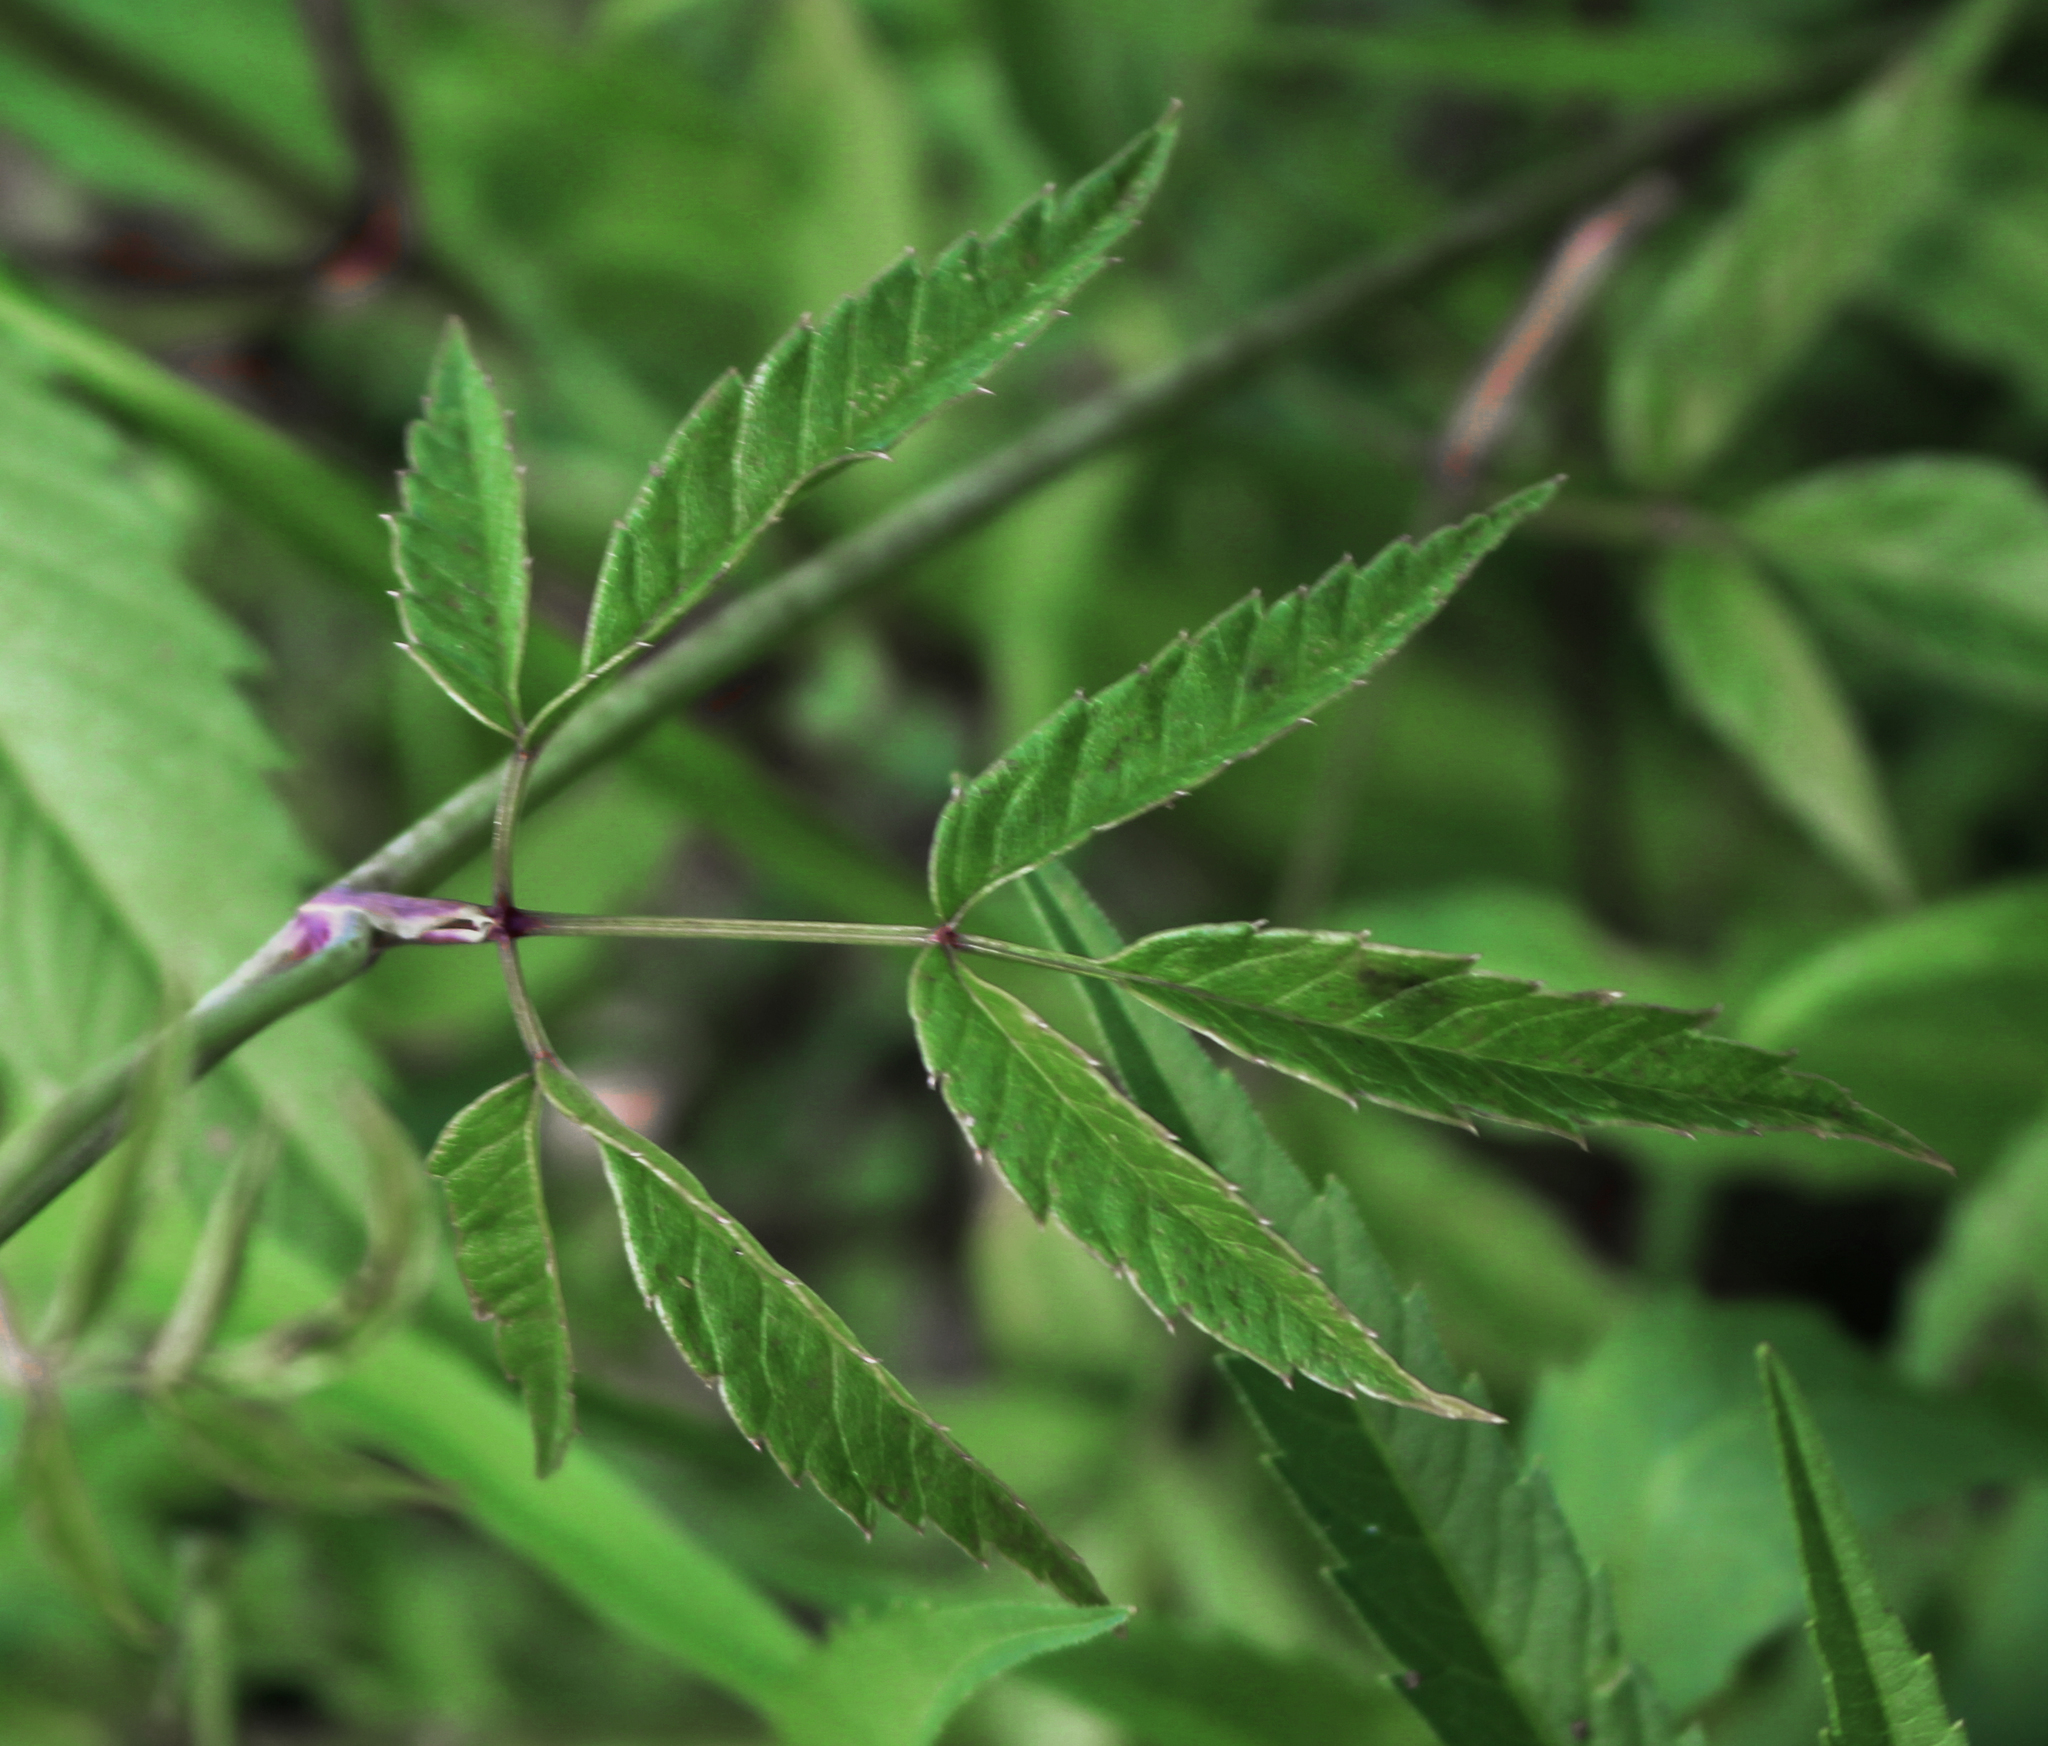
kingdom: Plantae
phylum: Tracheophyta
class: Magnoliopsida
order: Apiales
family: Apiaceae
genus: Cicuta
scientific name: Cicuta maculata
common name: Spotted cowbane
